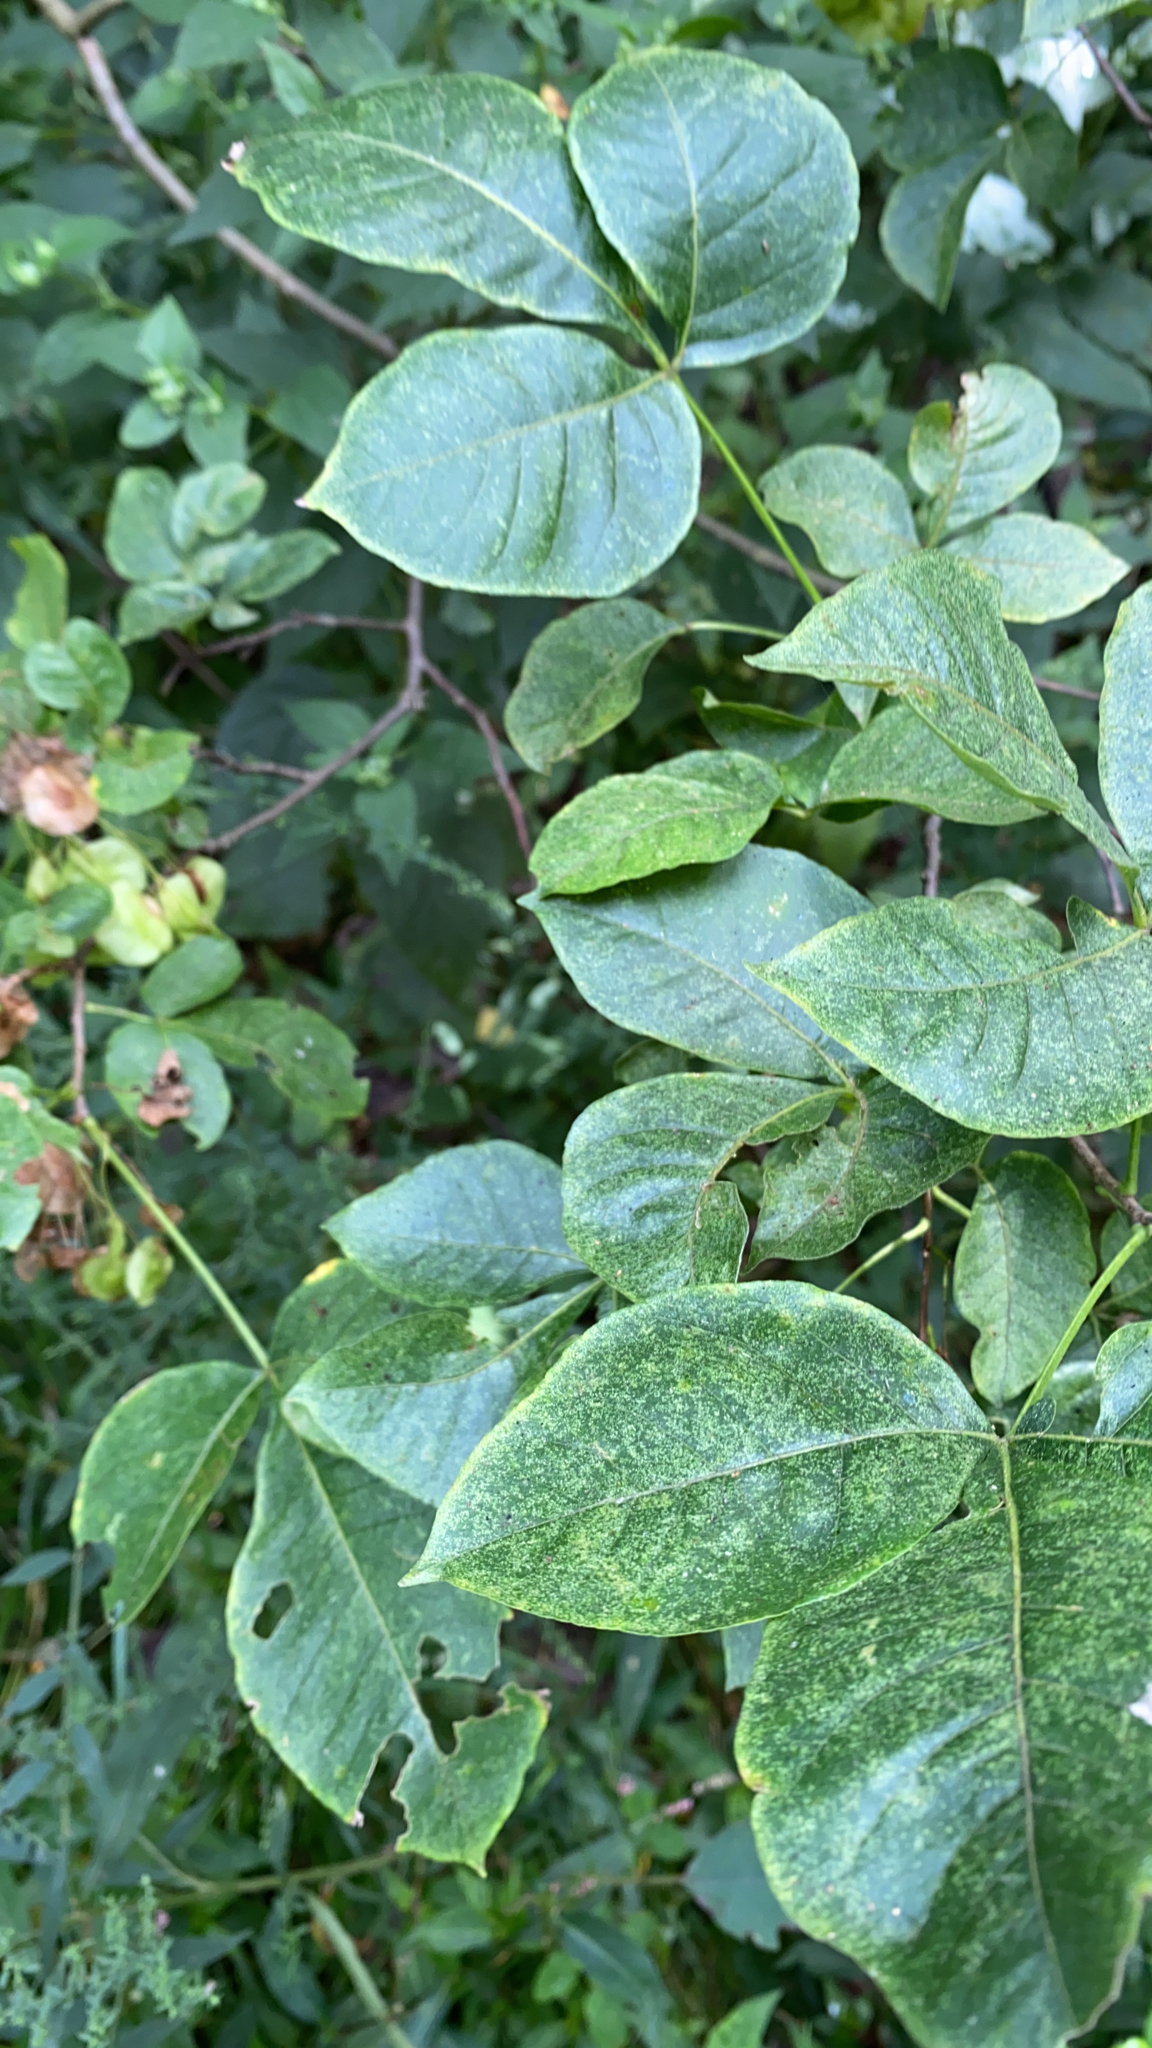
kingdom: Plantae
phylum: Tracheophyta
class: Magnoliopsida
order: Sapindales
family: Rutaceae
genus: Ptelea
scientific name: Ptelea trifoliata
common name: Common hop-tree
